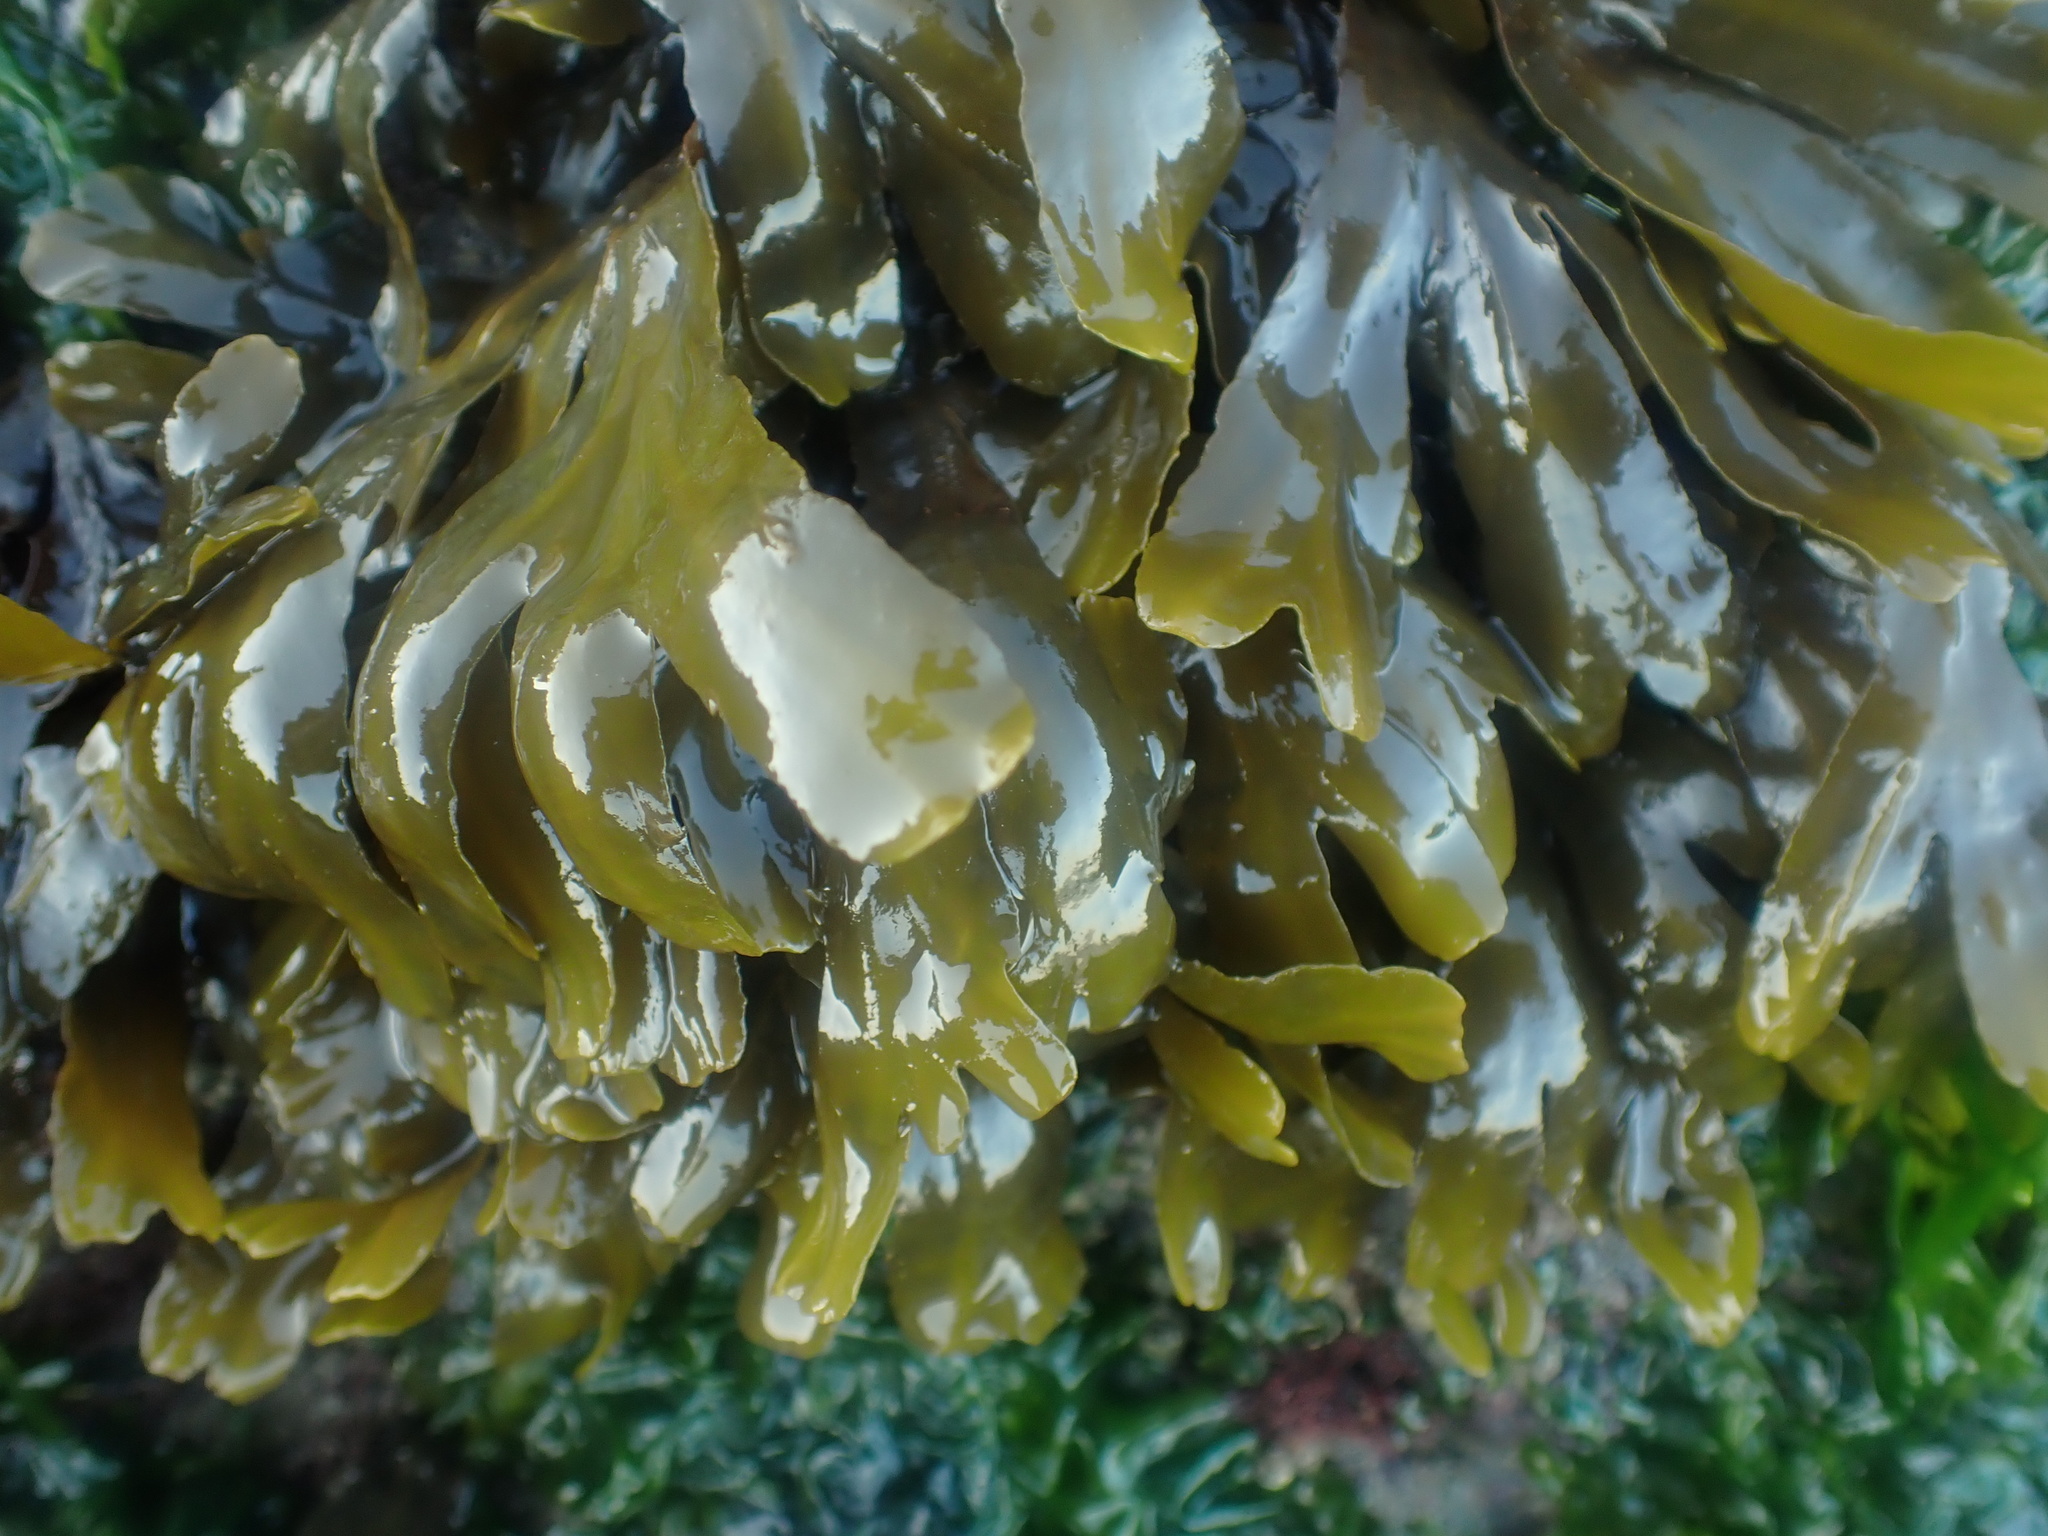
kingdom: Chromista
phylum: Ochrophyta
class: Phaeophyceae
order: Fucales
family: Fucaceae
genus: Fucus
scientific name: Fucus distichus
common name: Rockweed
